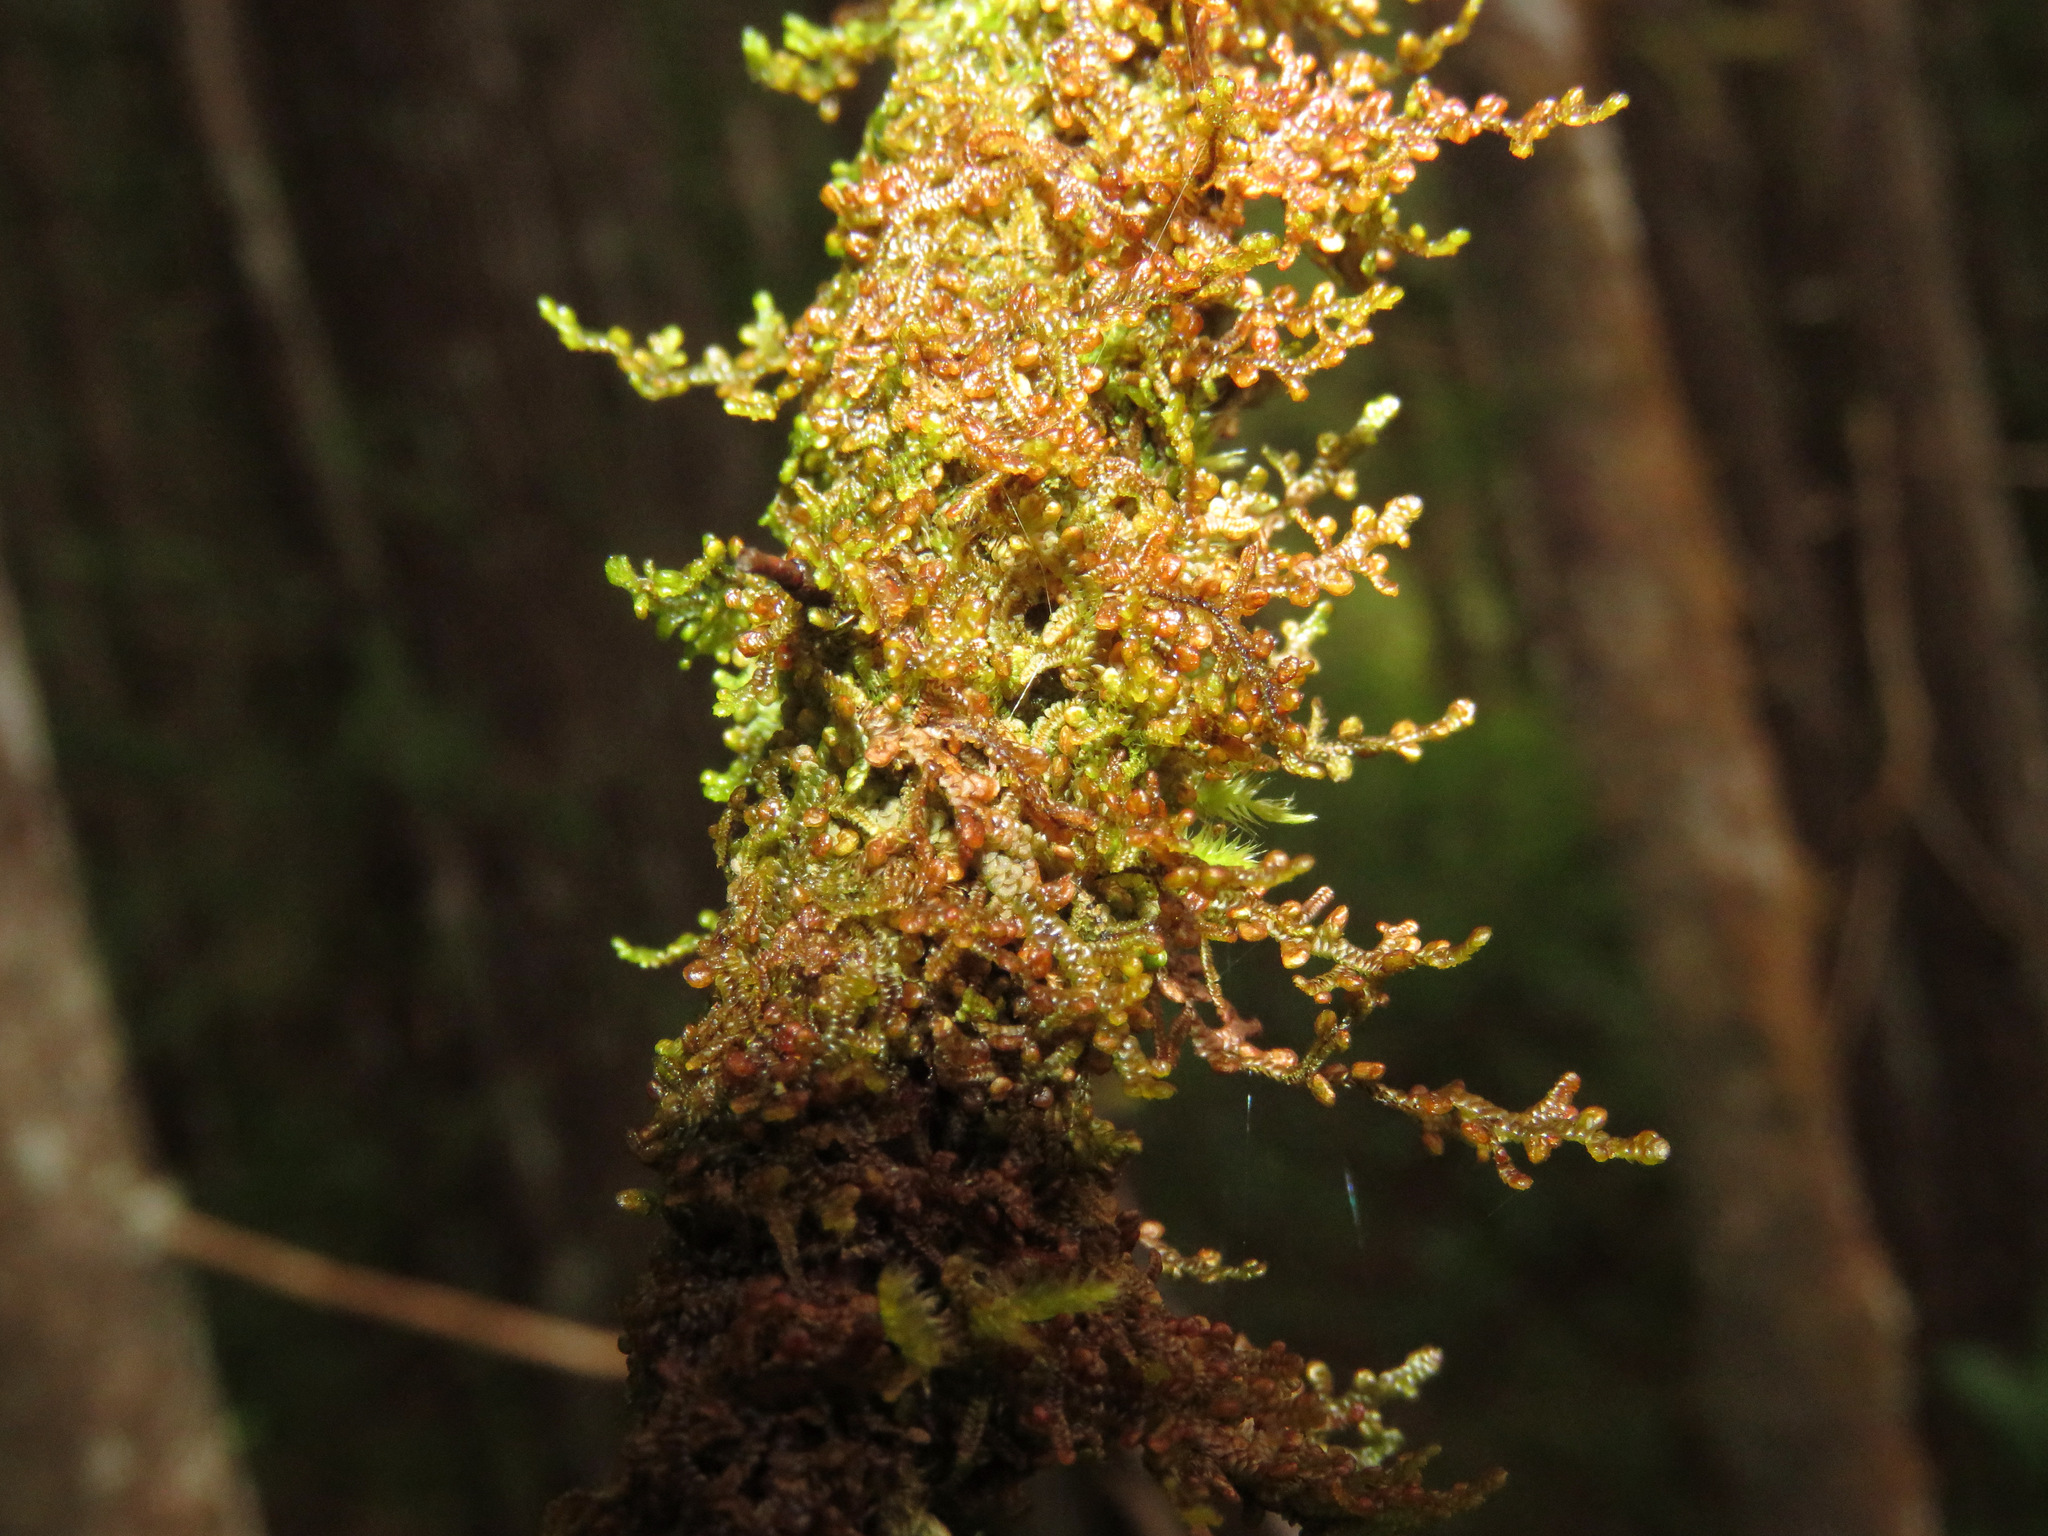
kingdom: Plantae
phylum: Marchantiophyta
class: Jungermanniopsida
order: Porellales
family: Porellaceae
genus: Porella
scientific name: Porella navicularis
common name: Tree ruffle liverwort
